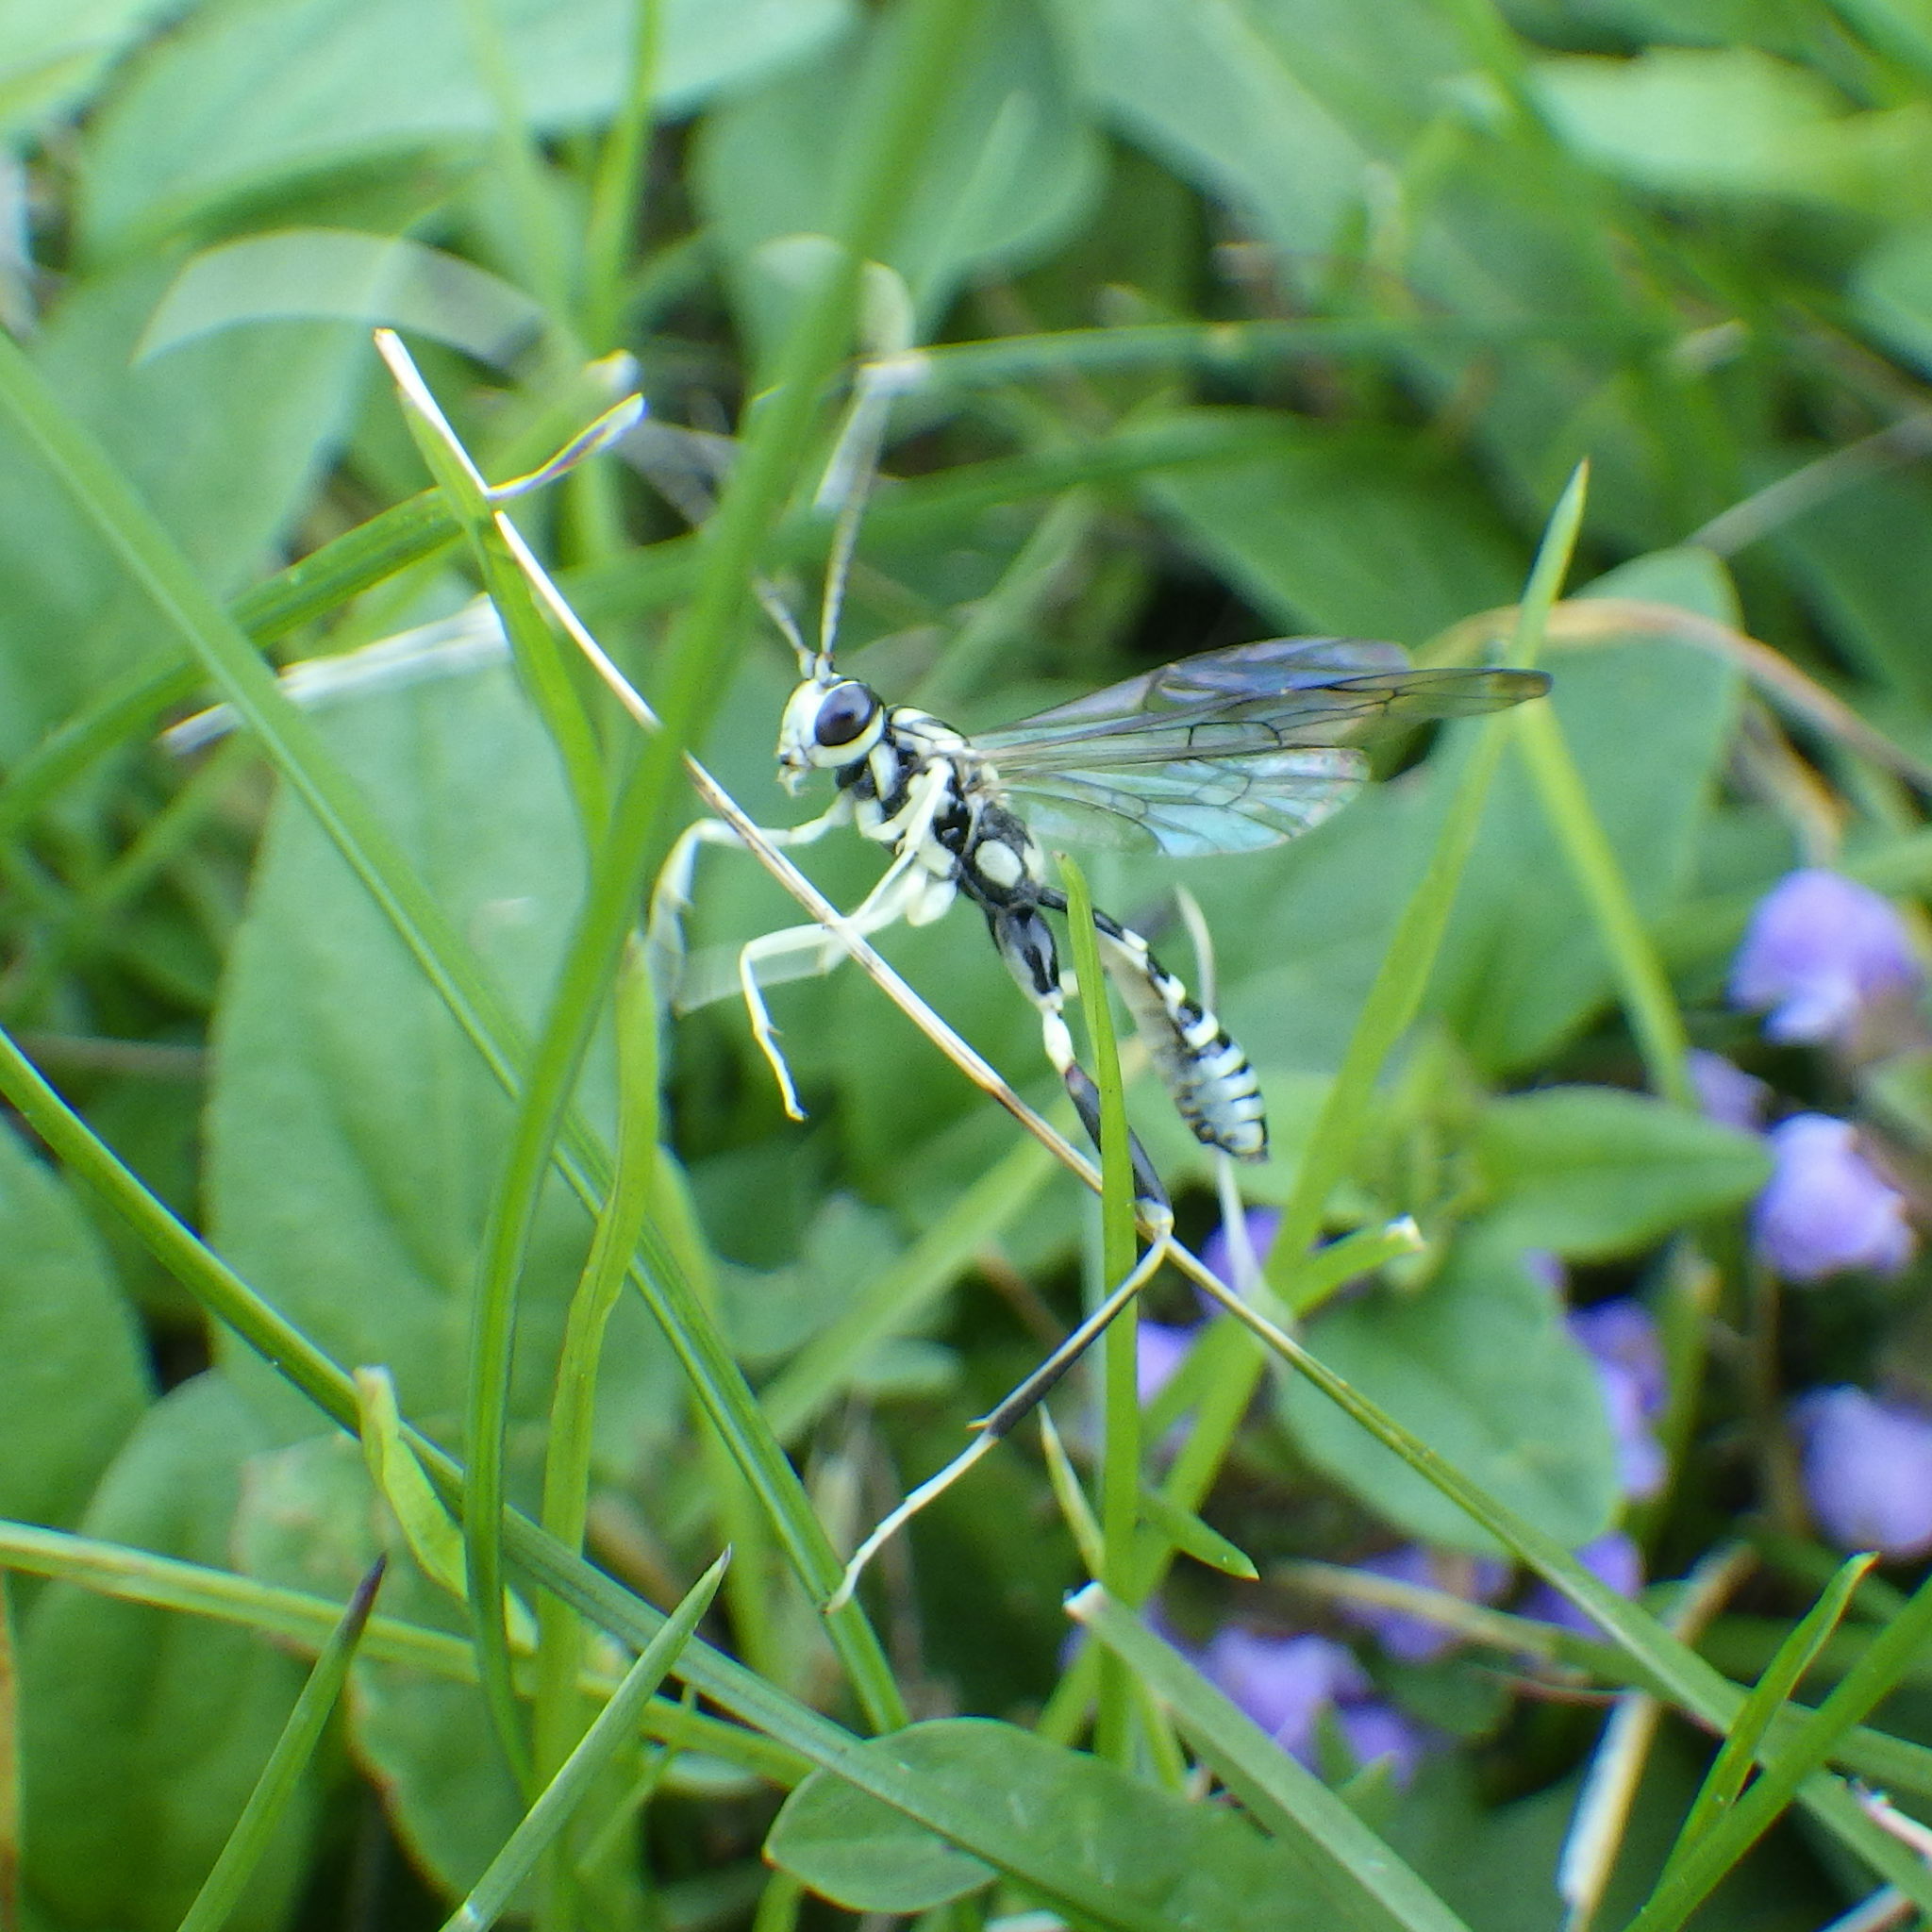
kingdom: Animalia
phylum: Arthropoda
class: Insecta
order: Hymenoptera
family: Ichneumonidae
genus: Arotes
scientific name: Arotes amoenus
